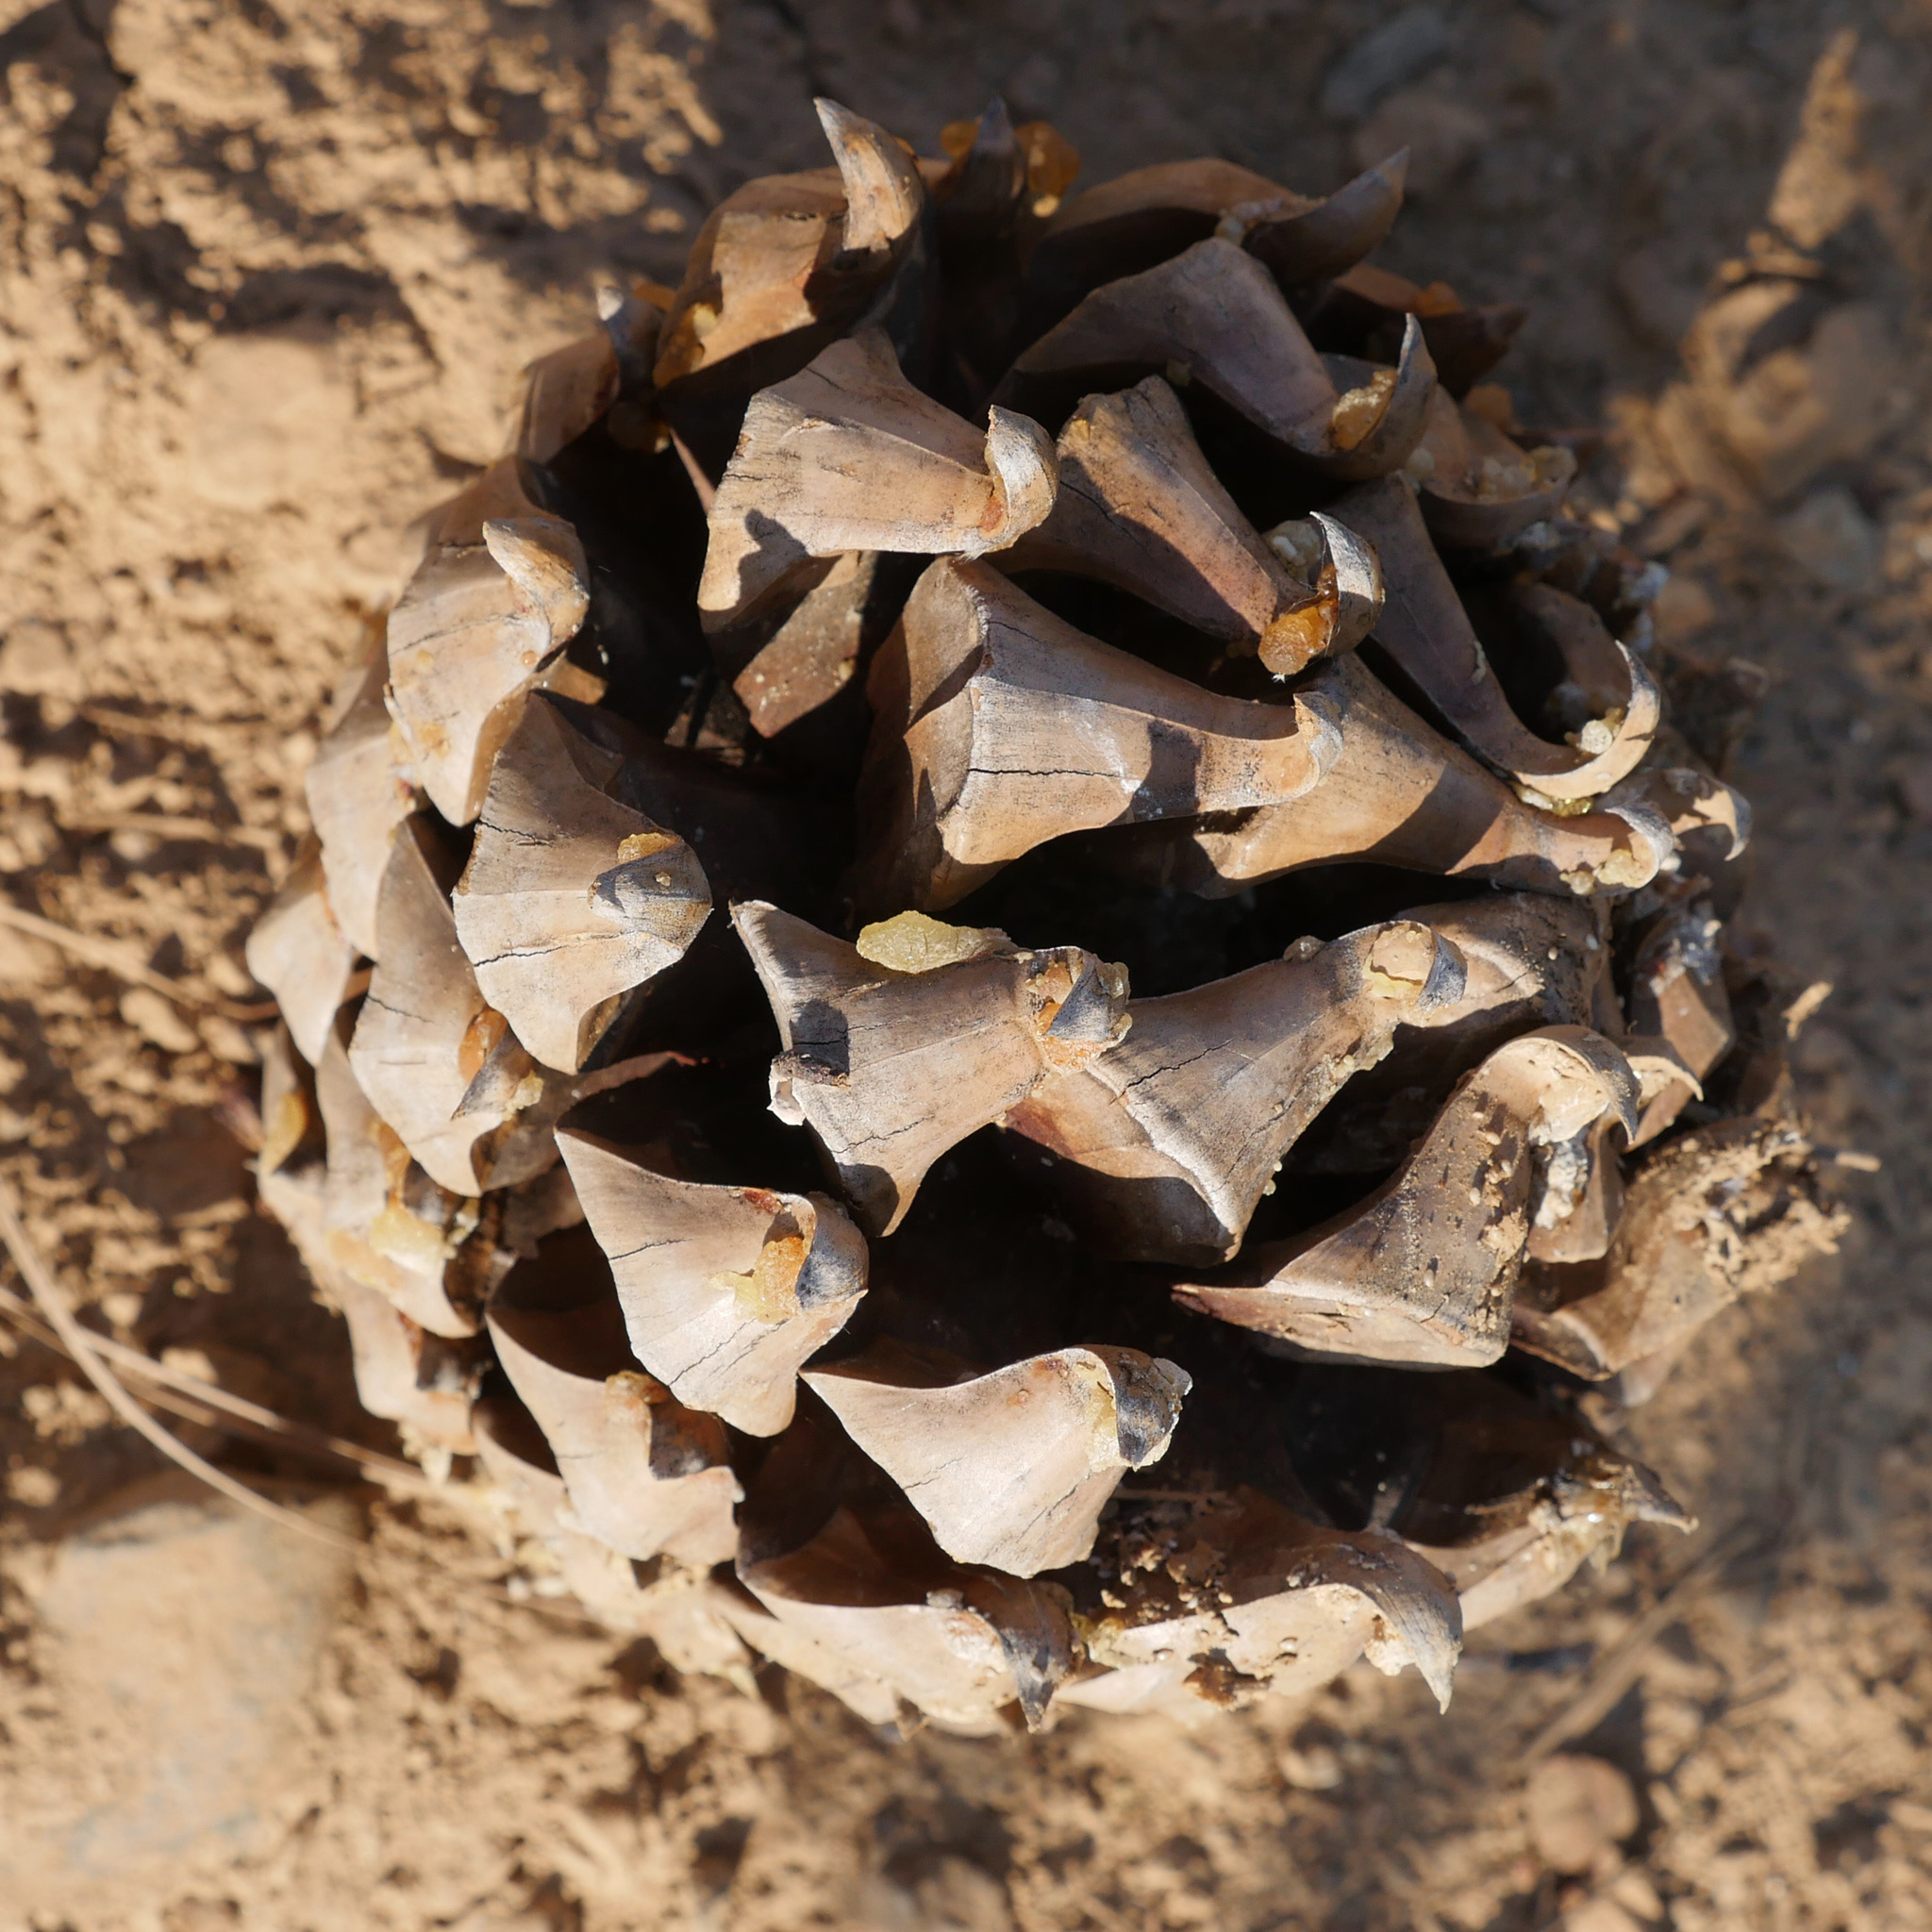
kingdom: Plantae
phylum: Tracheophyta
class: Pinopsida
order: Pinales
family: Pinaceae
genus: Pinus
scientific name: Pinus sabiniana
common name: Bull pine
